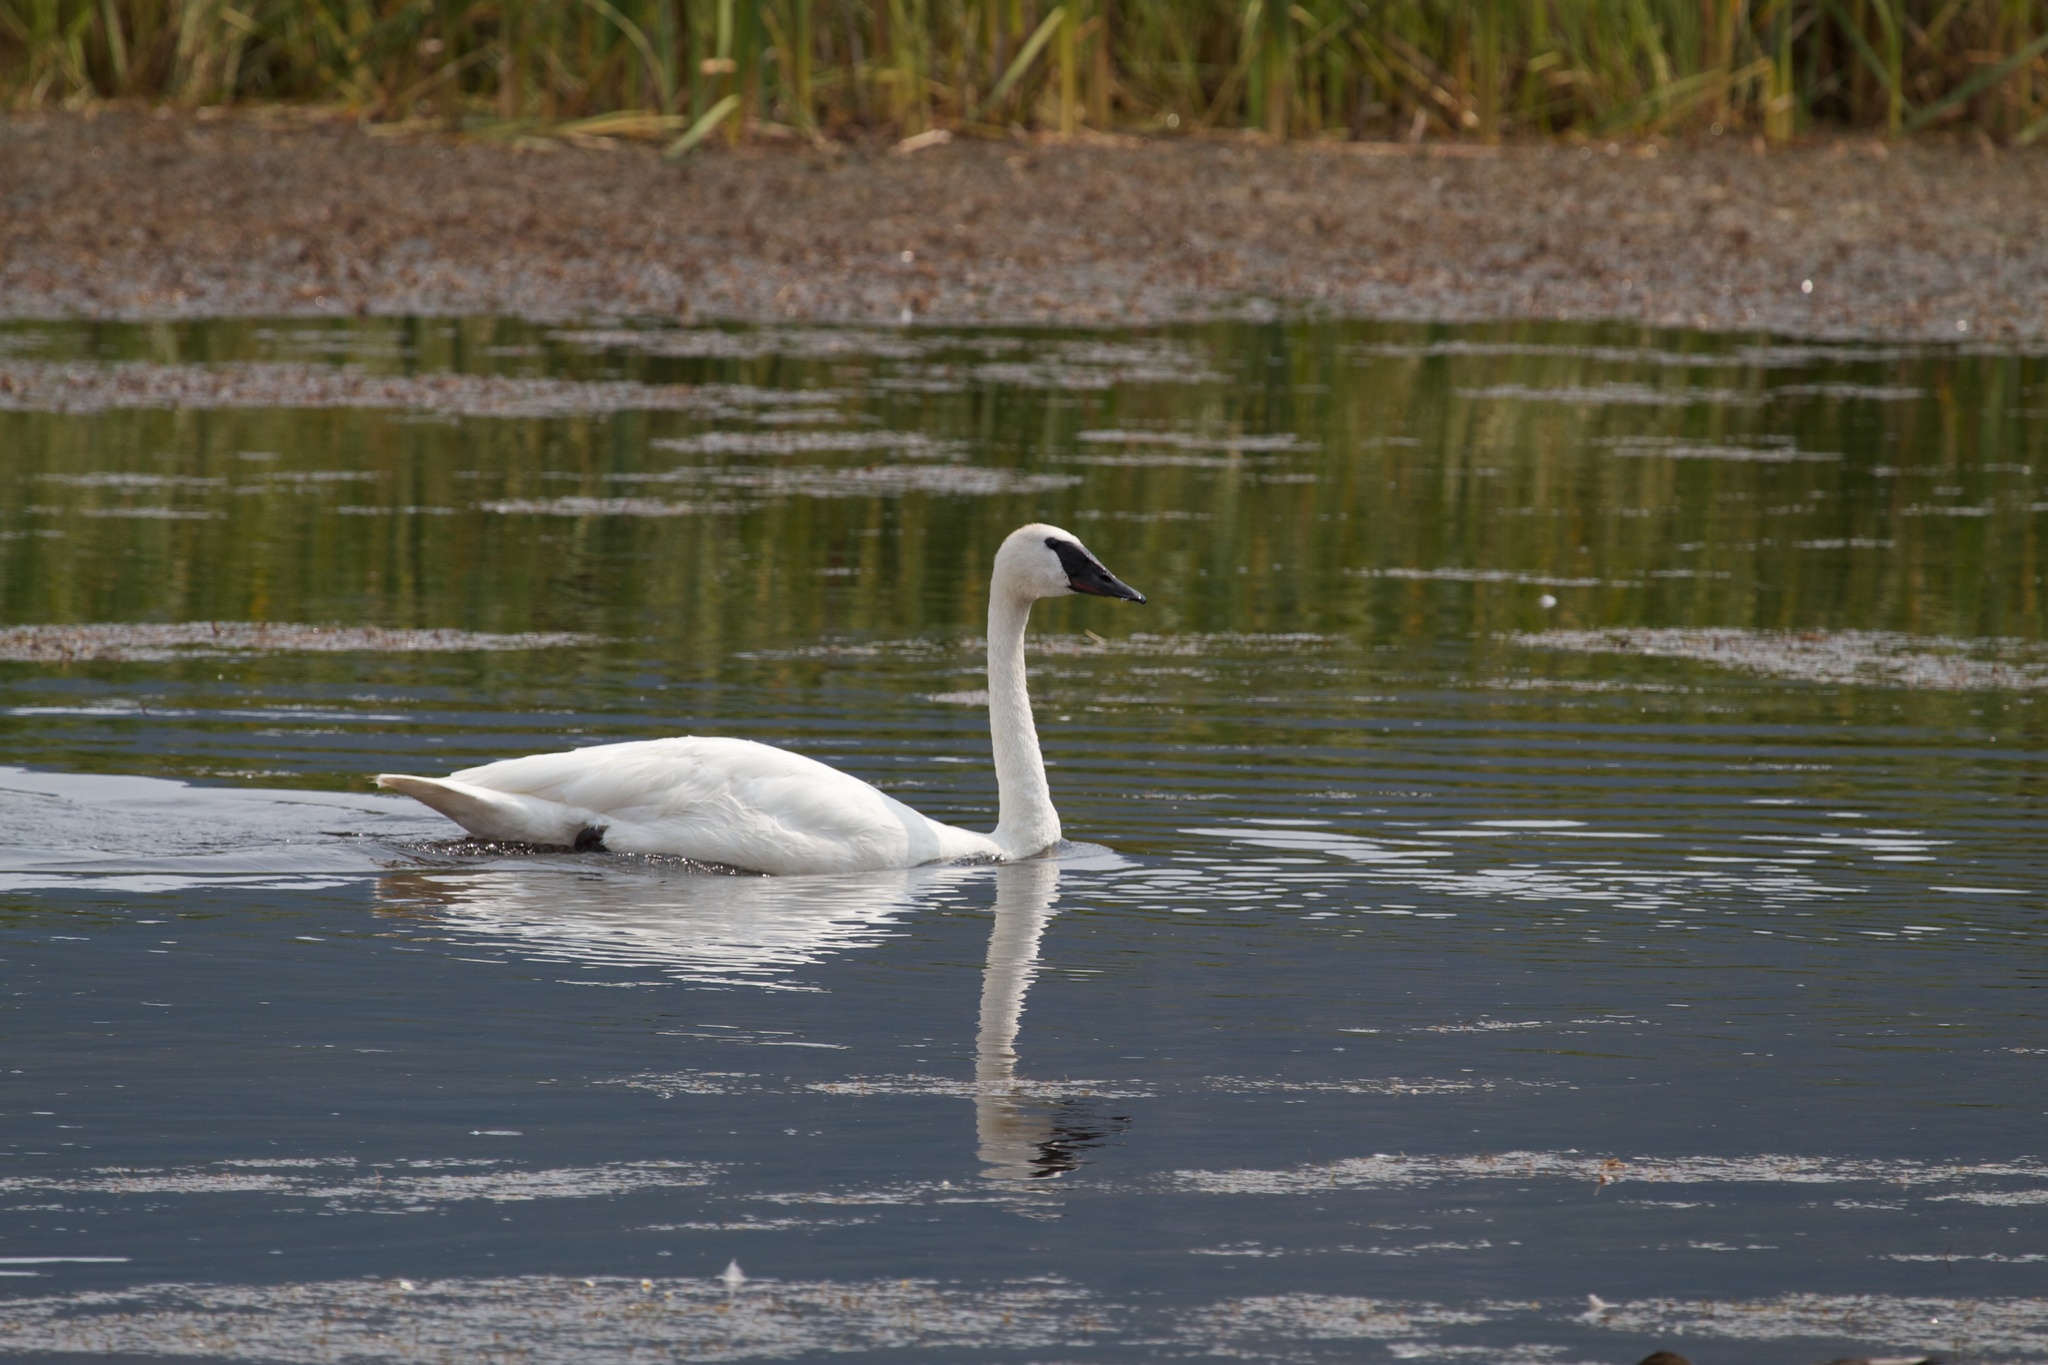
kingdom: Animalia
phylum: Chordata
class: Aves
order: Anseriformes
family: Anatidae
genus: Cygnus
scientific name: Cygnus buccinator
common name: Trumpeter swan
